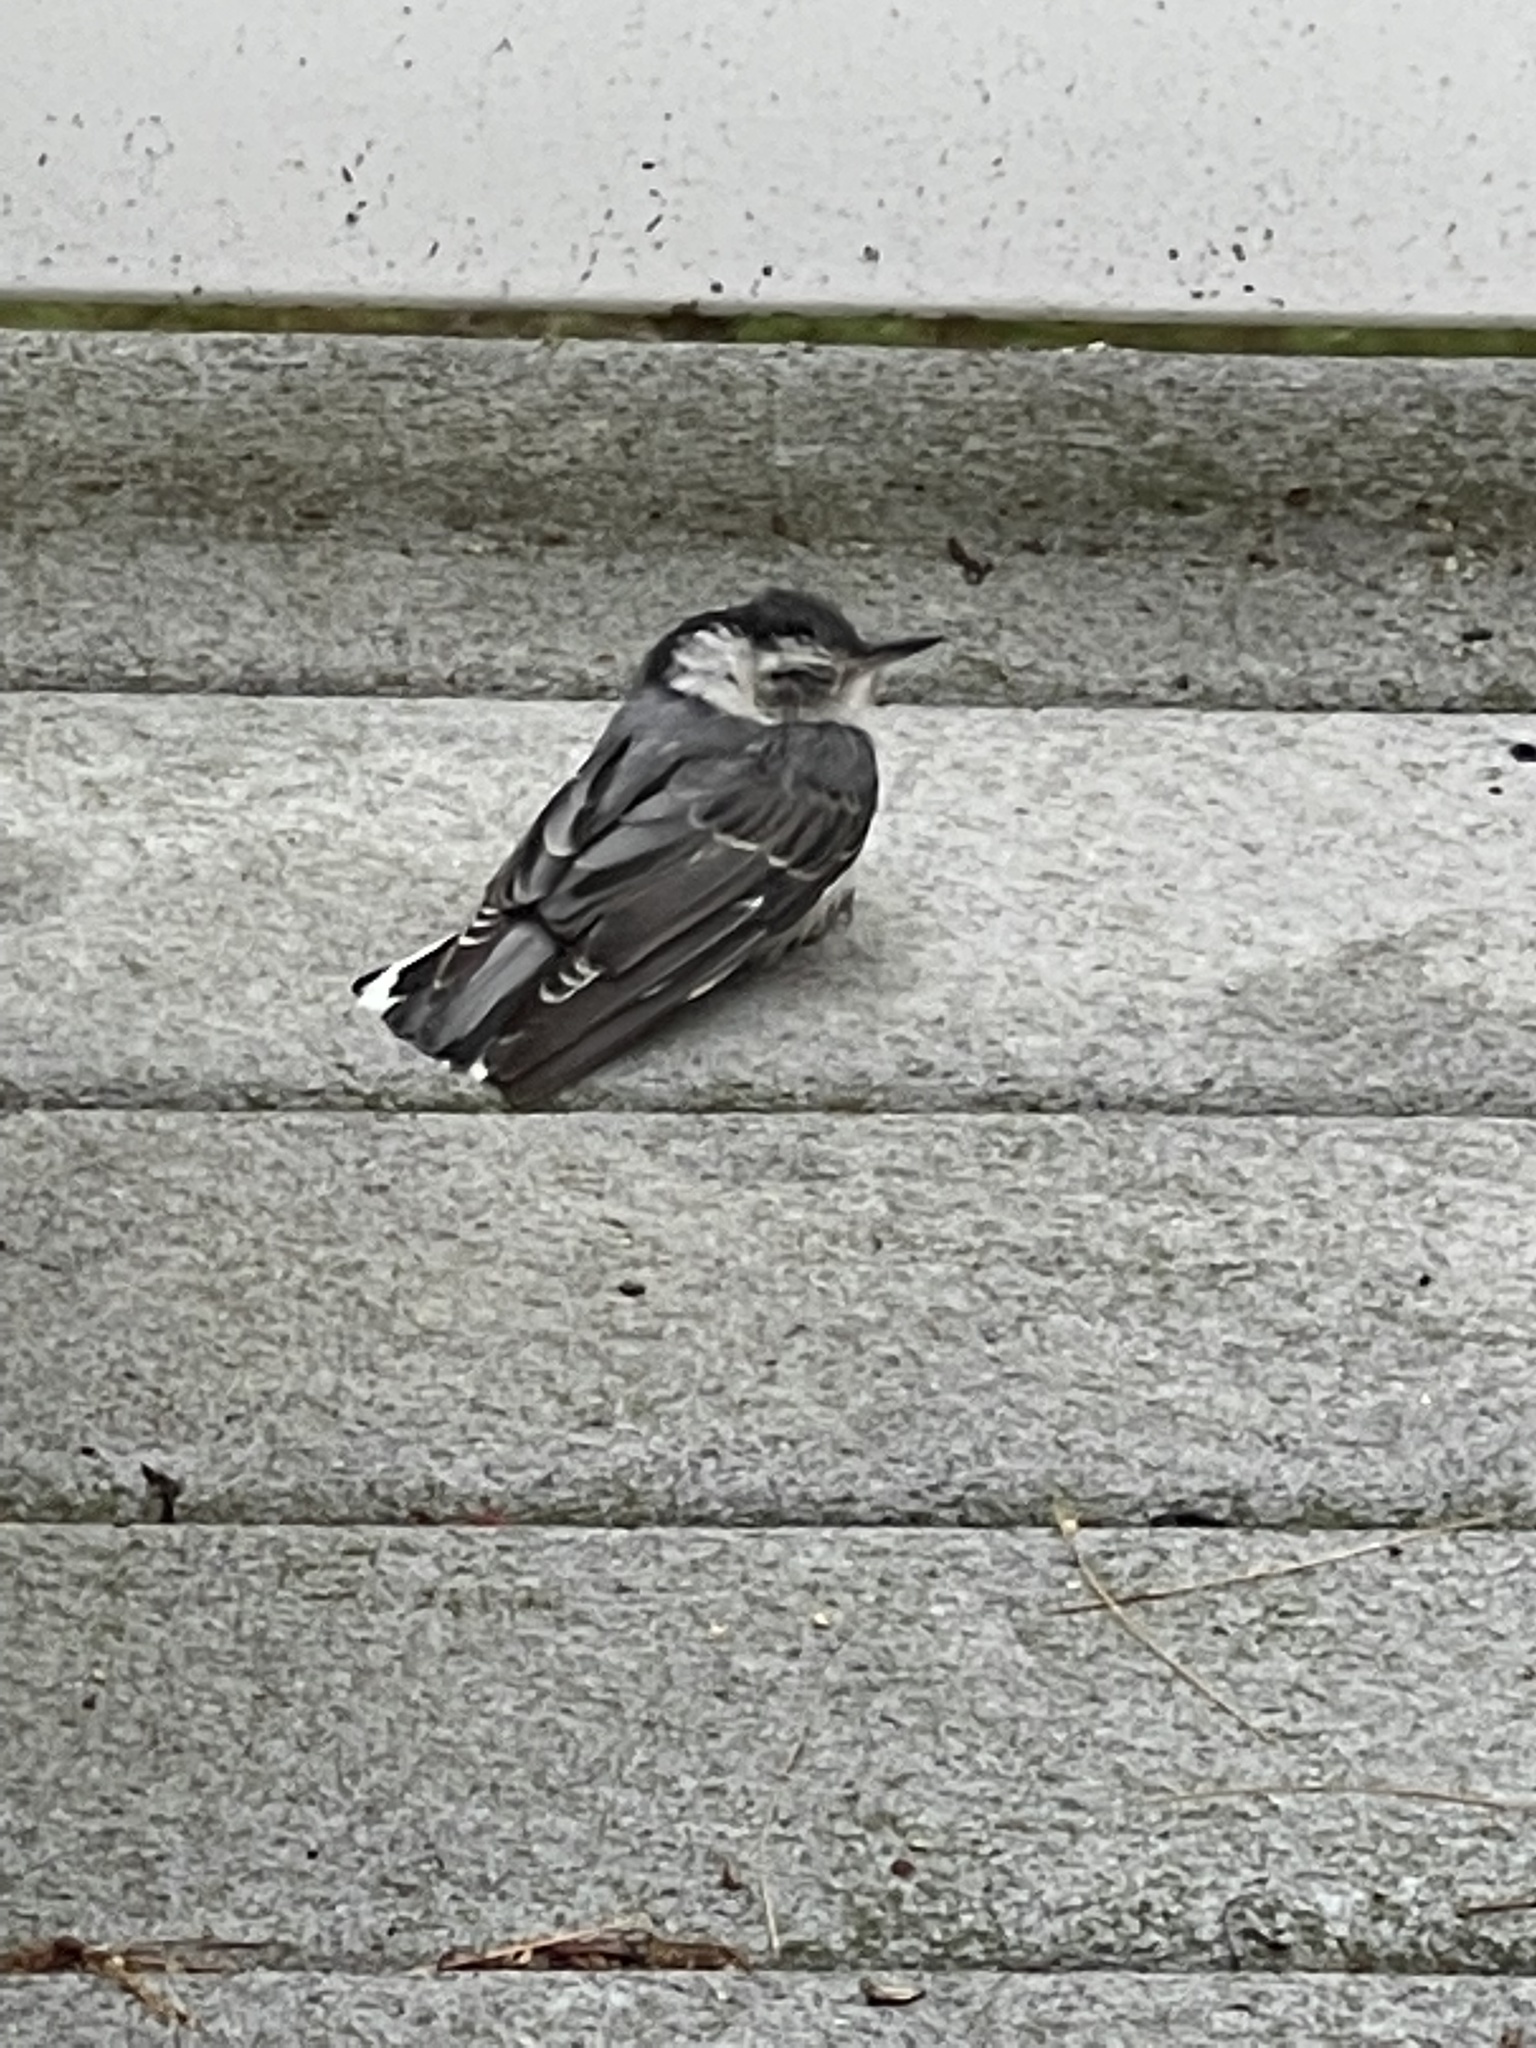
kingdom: Animalia
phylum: Chordata
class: Aves
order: Passeriformes
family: Sittidae
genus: Sitta
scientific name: Sitta carolinensis
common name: White-breasted nuthatch
